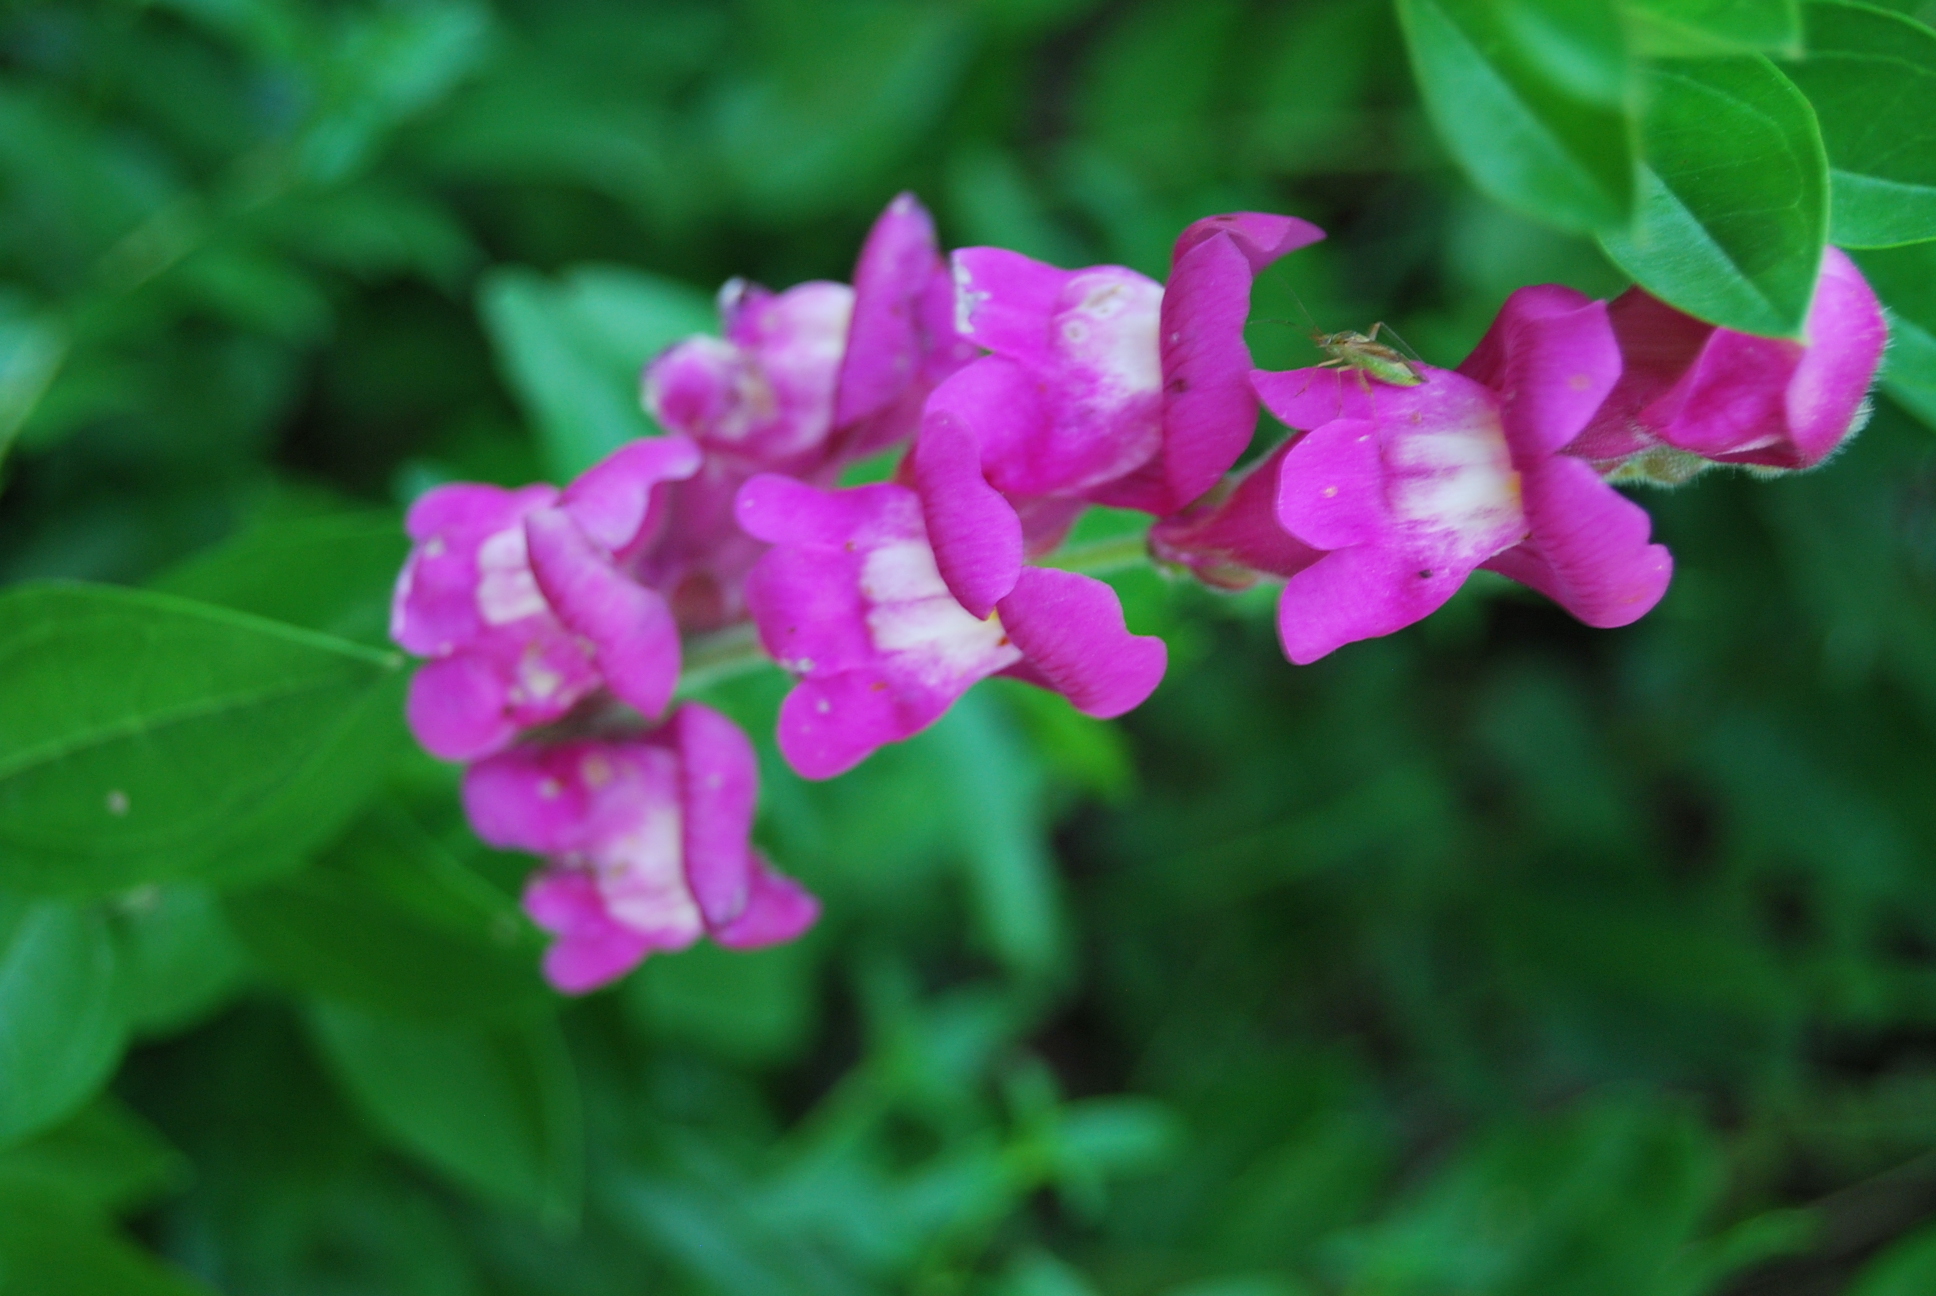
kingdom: Plantae
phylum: Tracheophyta
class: Magnoliopsida
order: Lamiales
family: Plantaginaceae
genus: Antirrhinum
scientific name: Antirrhinum majus
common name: Snapdragon
